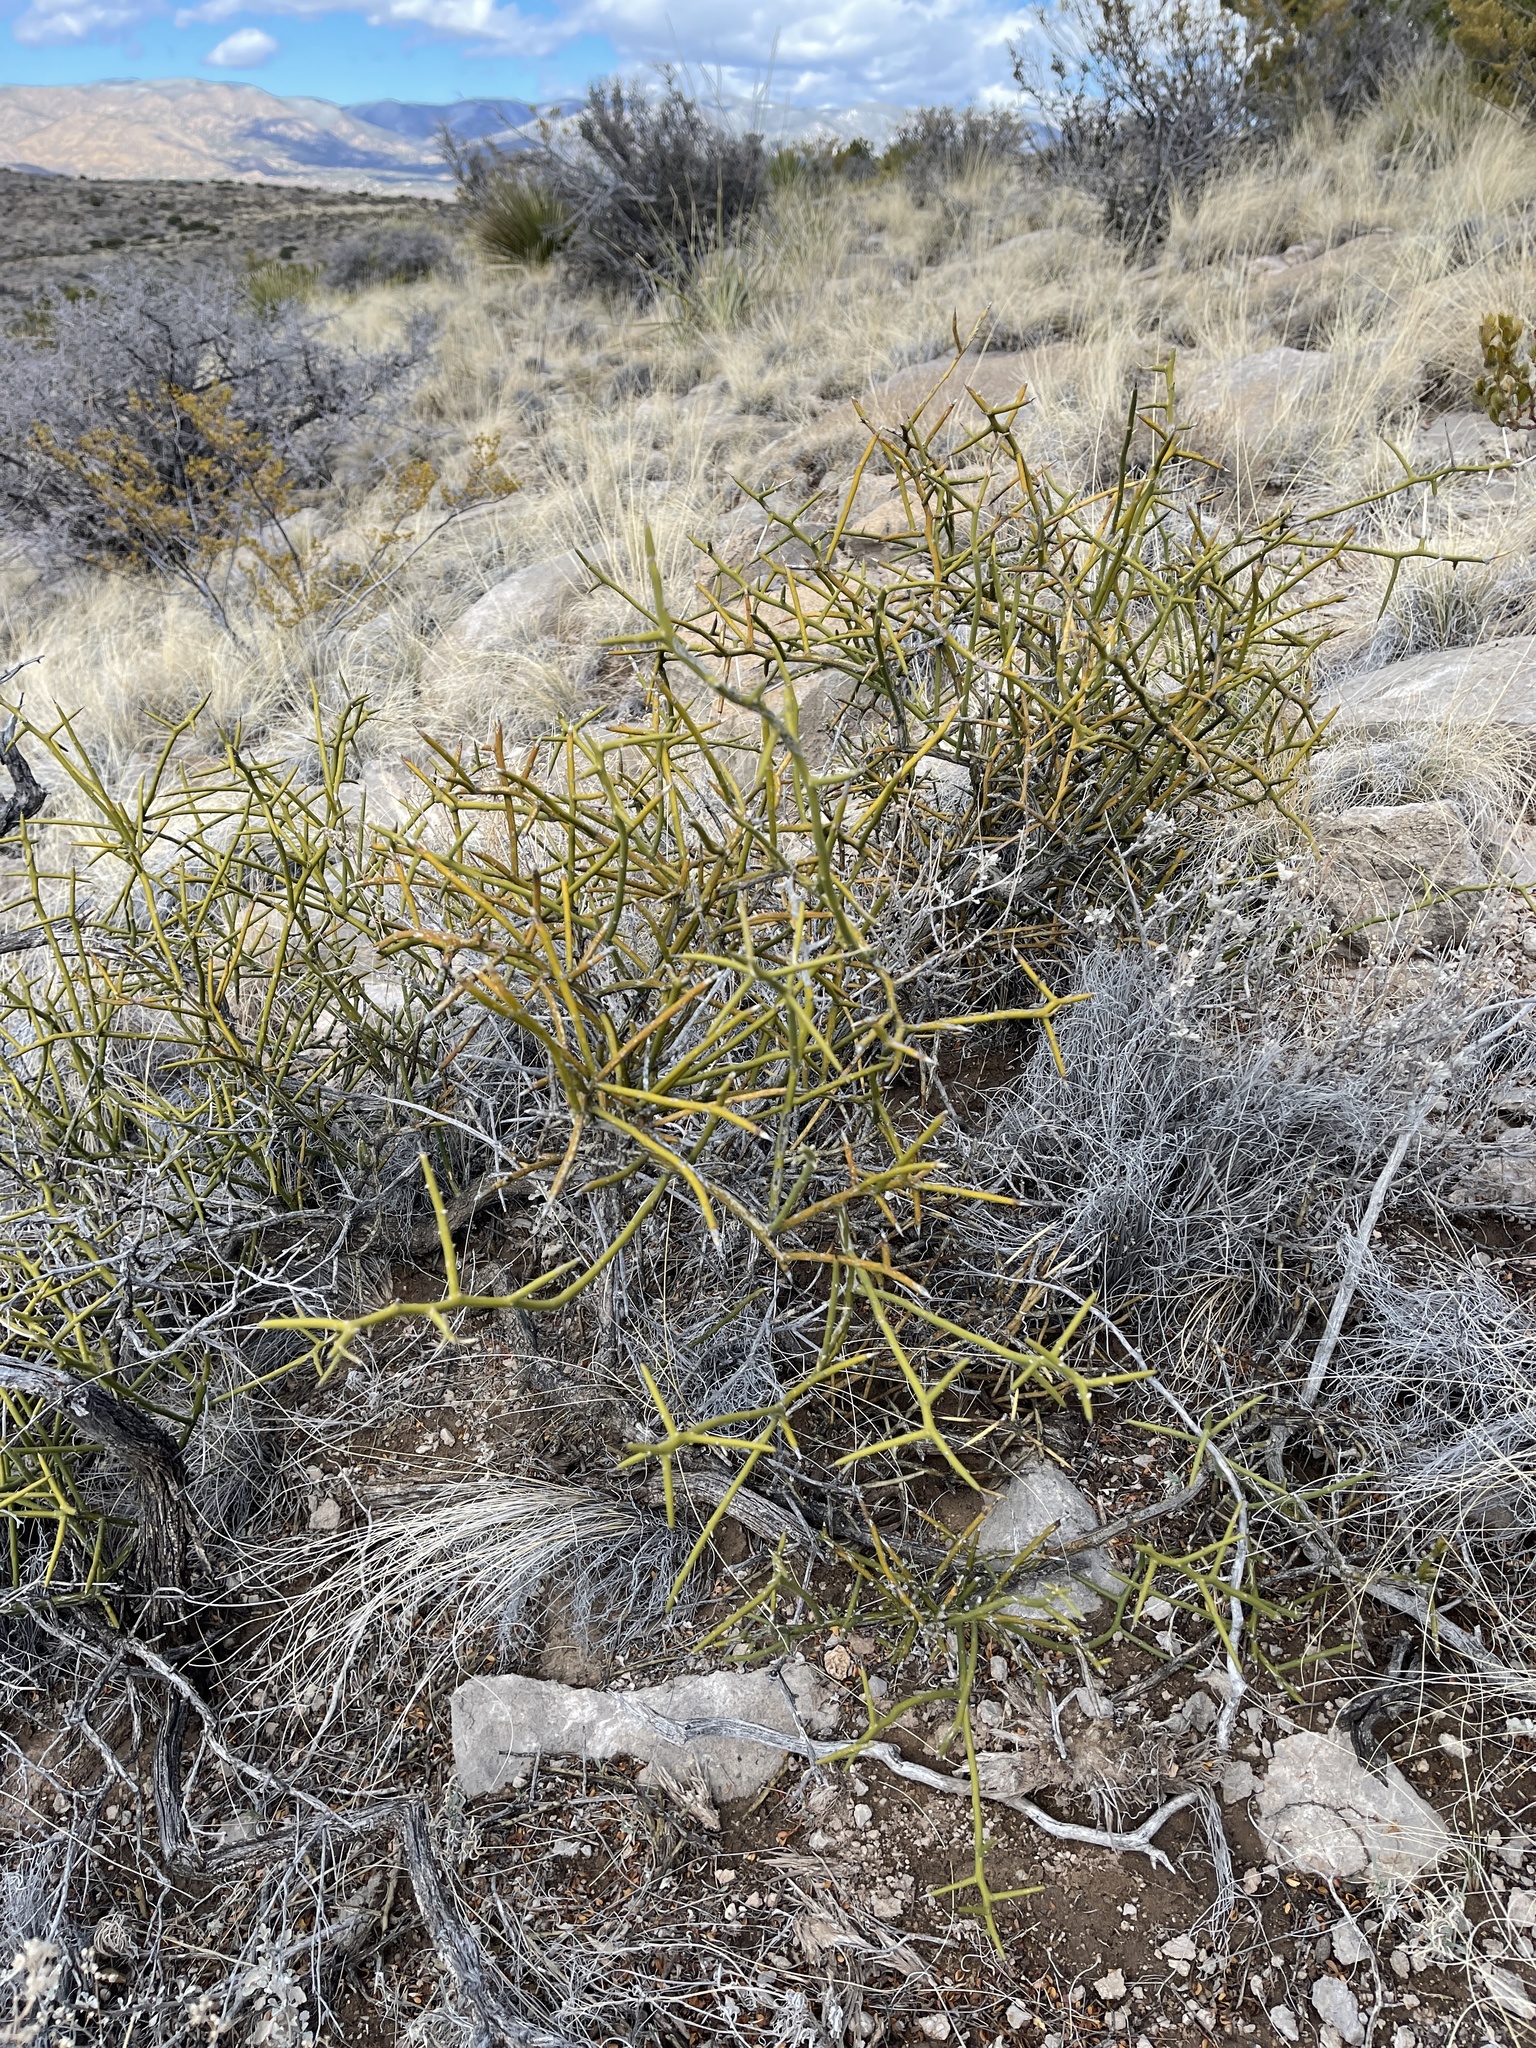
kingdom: Plantae
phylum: Tracheophyta
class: Magnoliopsida
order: Brassicales
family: Koeberliniaceae
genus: Koeberlinia
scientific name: Koeberlinia spinosa
